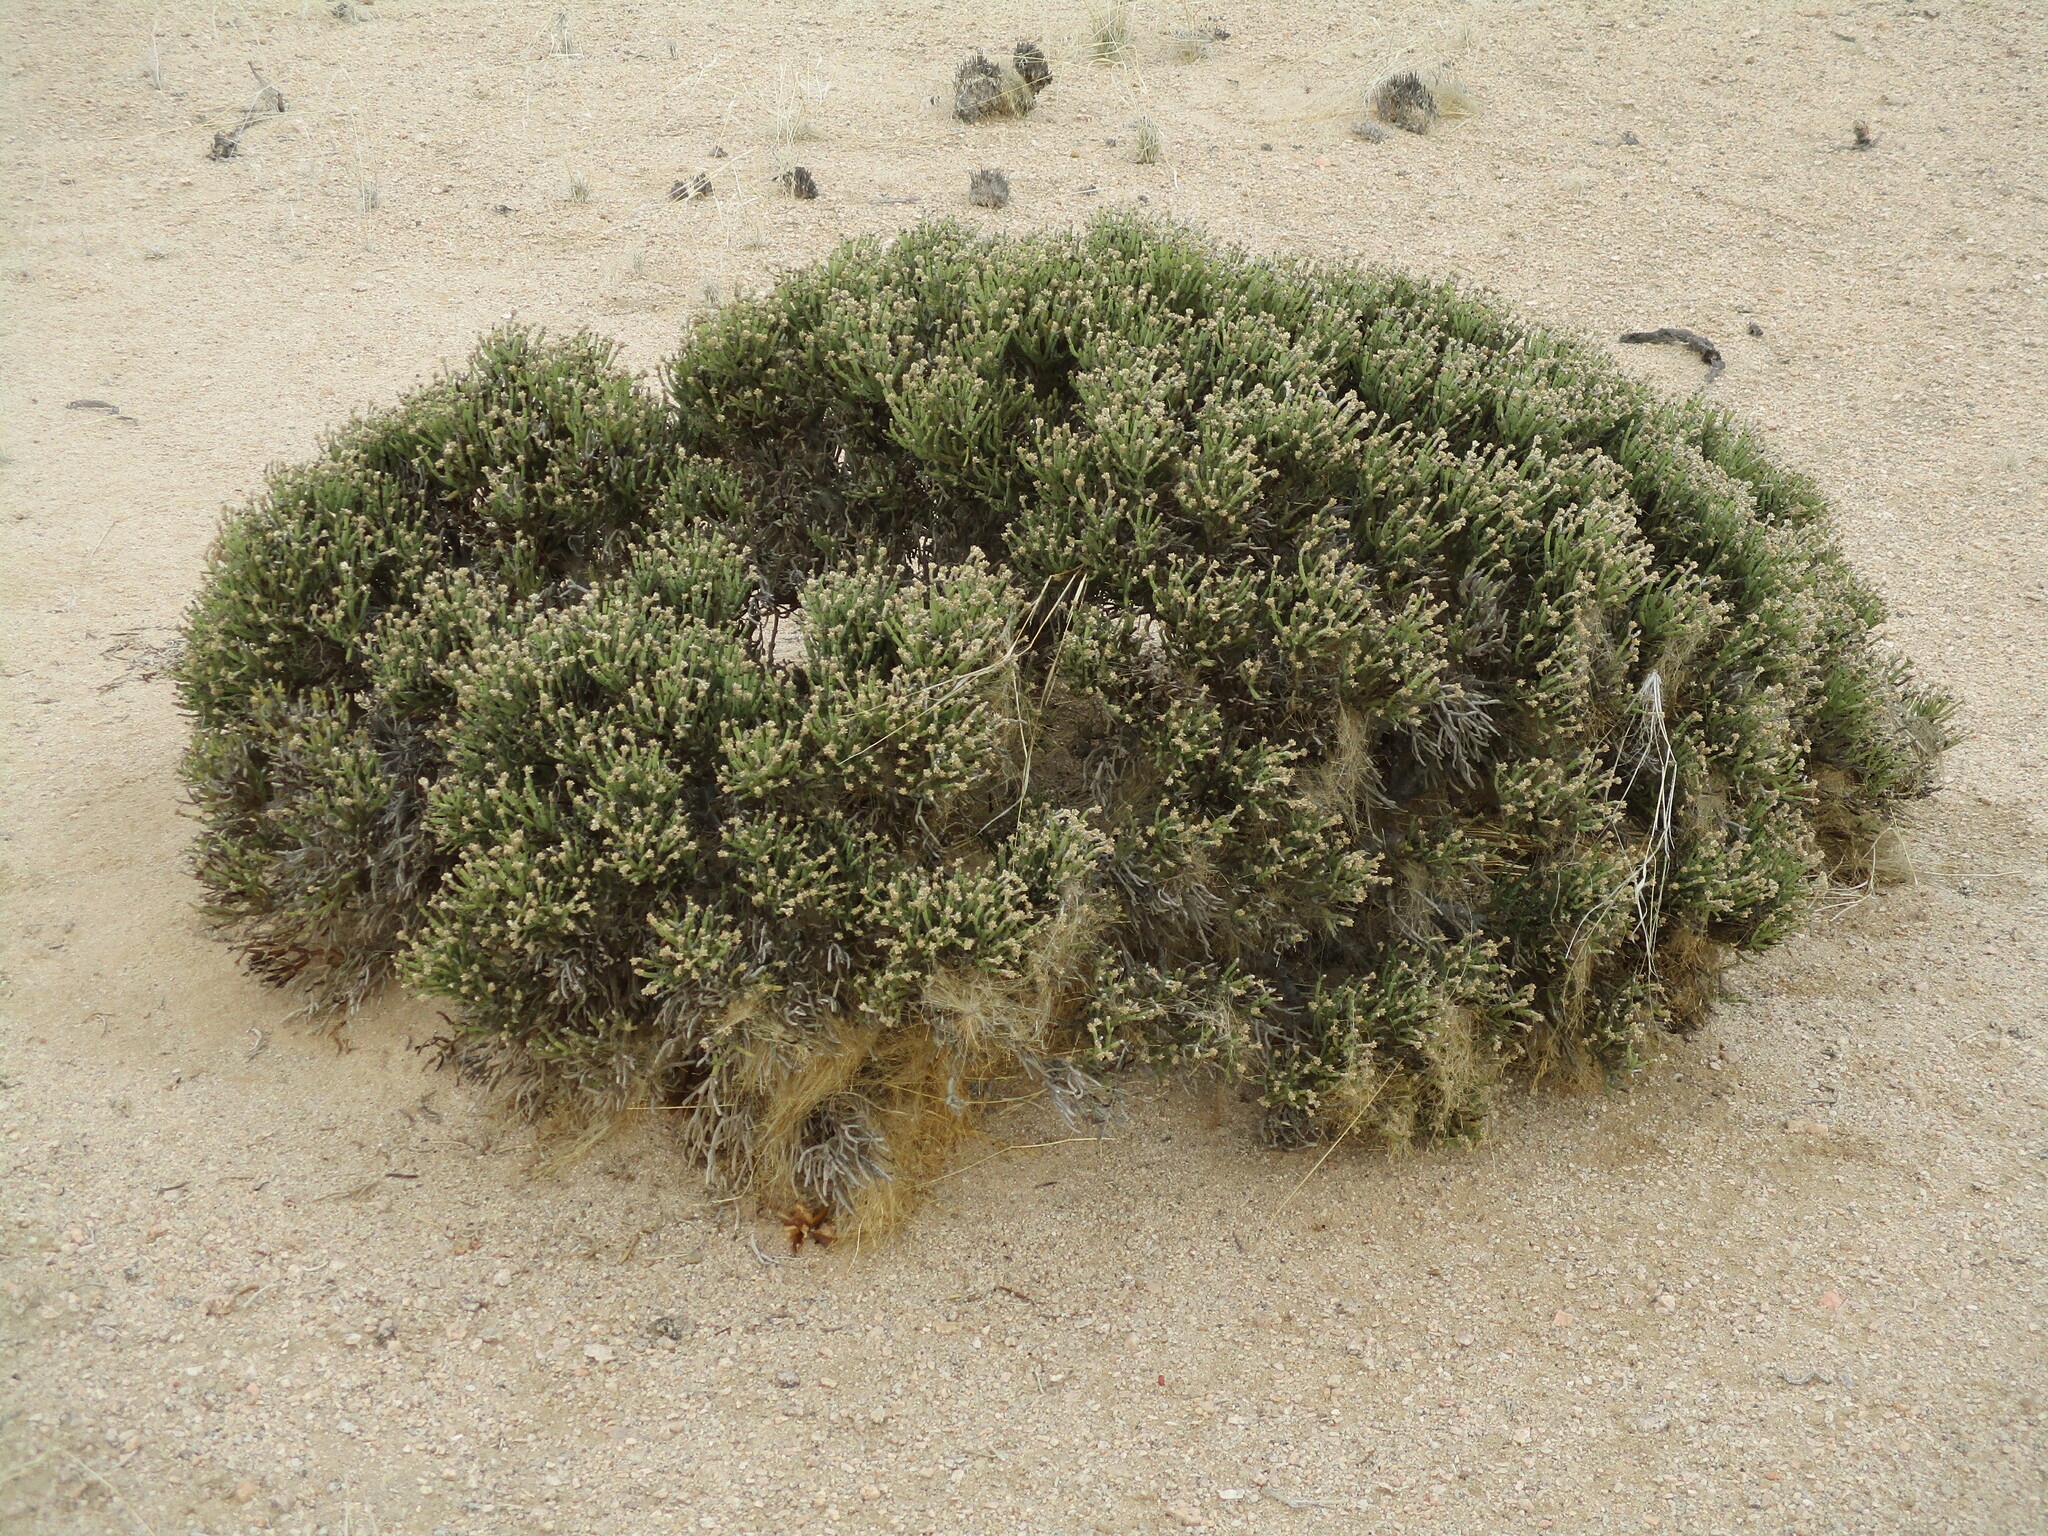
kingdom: Plantae
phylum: Tracheophyta
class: Magnoliopsida
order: Caryophyllales
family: Amaranthaceae
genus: Arthraerva
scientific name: Arthraerva leubnitziae
